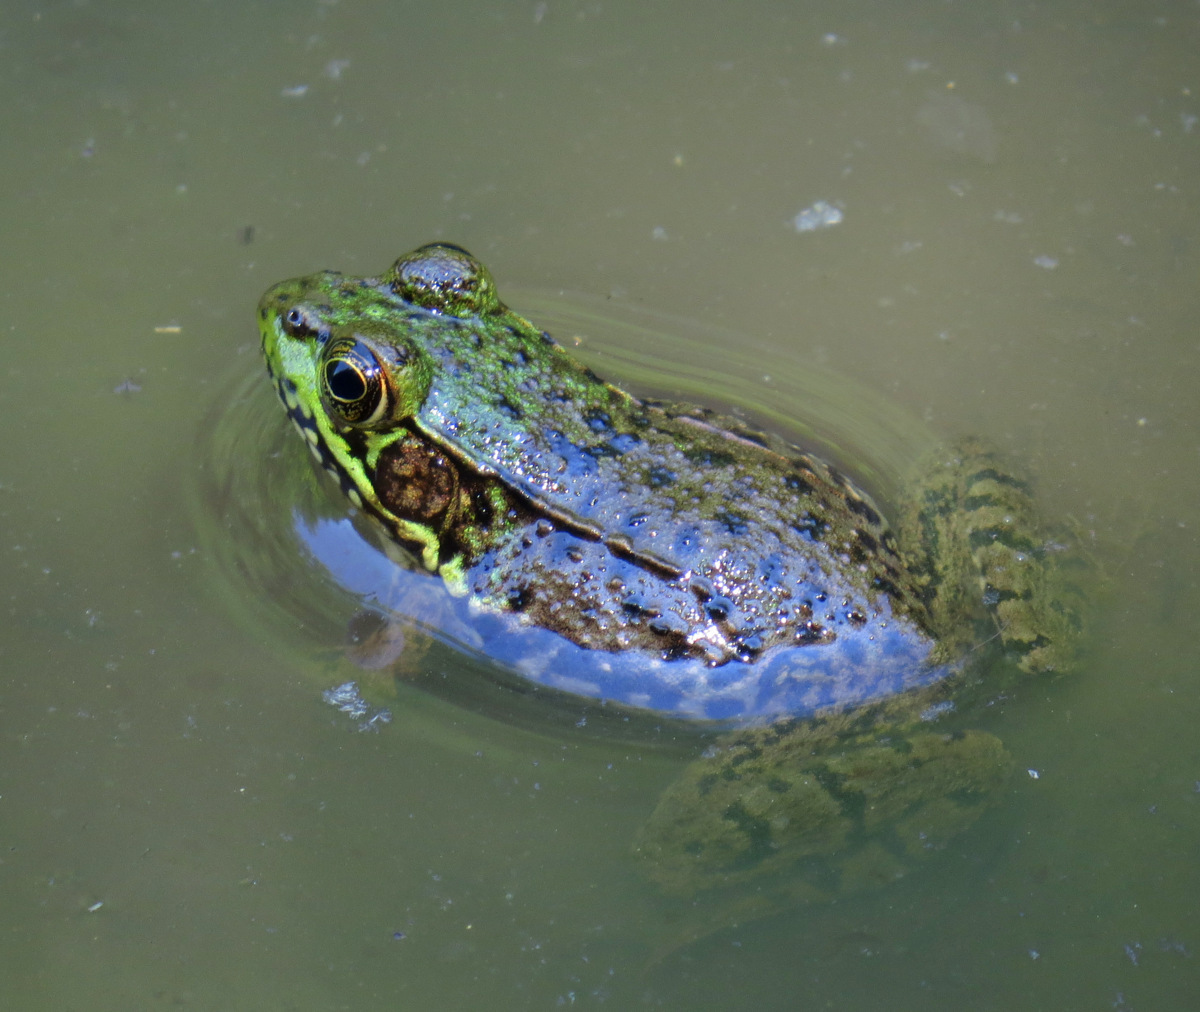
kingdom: Animalia
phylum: Chordata
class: Amphibia
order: Anura
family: Ranidae
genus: Lithobates
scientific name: Lithobates clamitans
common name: Green frog
